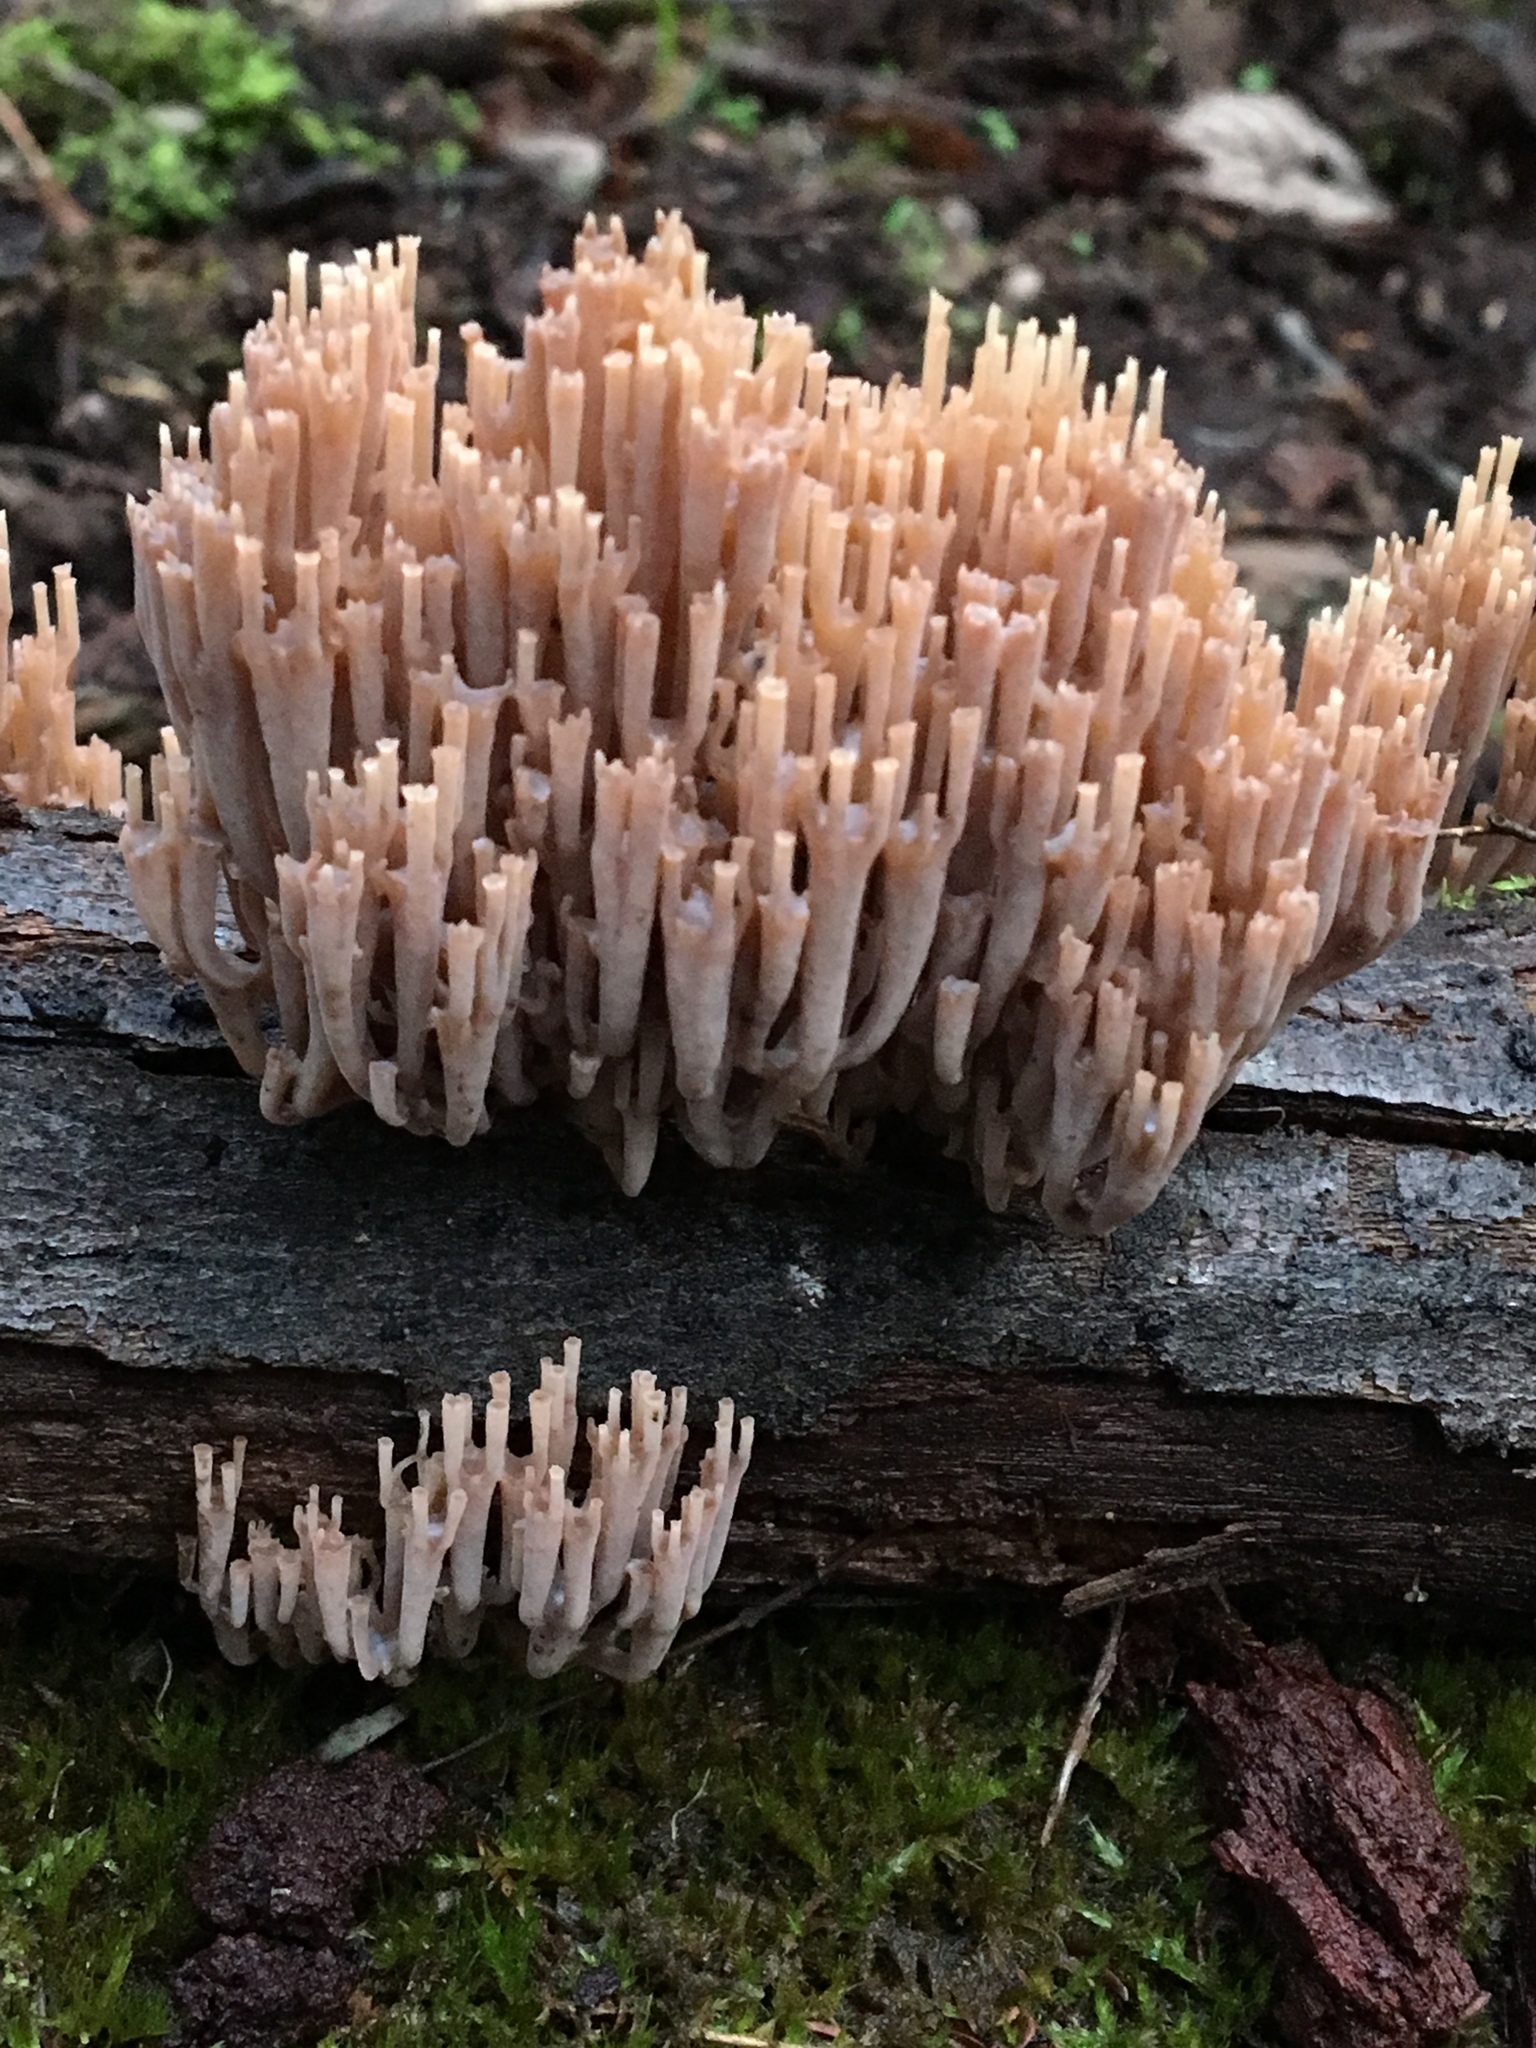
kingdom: Fungi
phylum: Basidiomycota
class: Agaricomycetes
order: Russulales
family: Auriscalpiaceae
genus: Artomyces
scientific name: Artomyces austropiperatus
